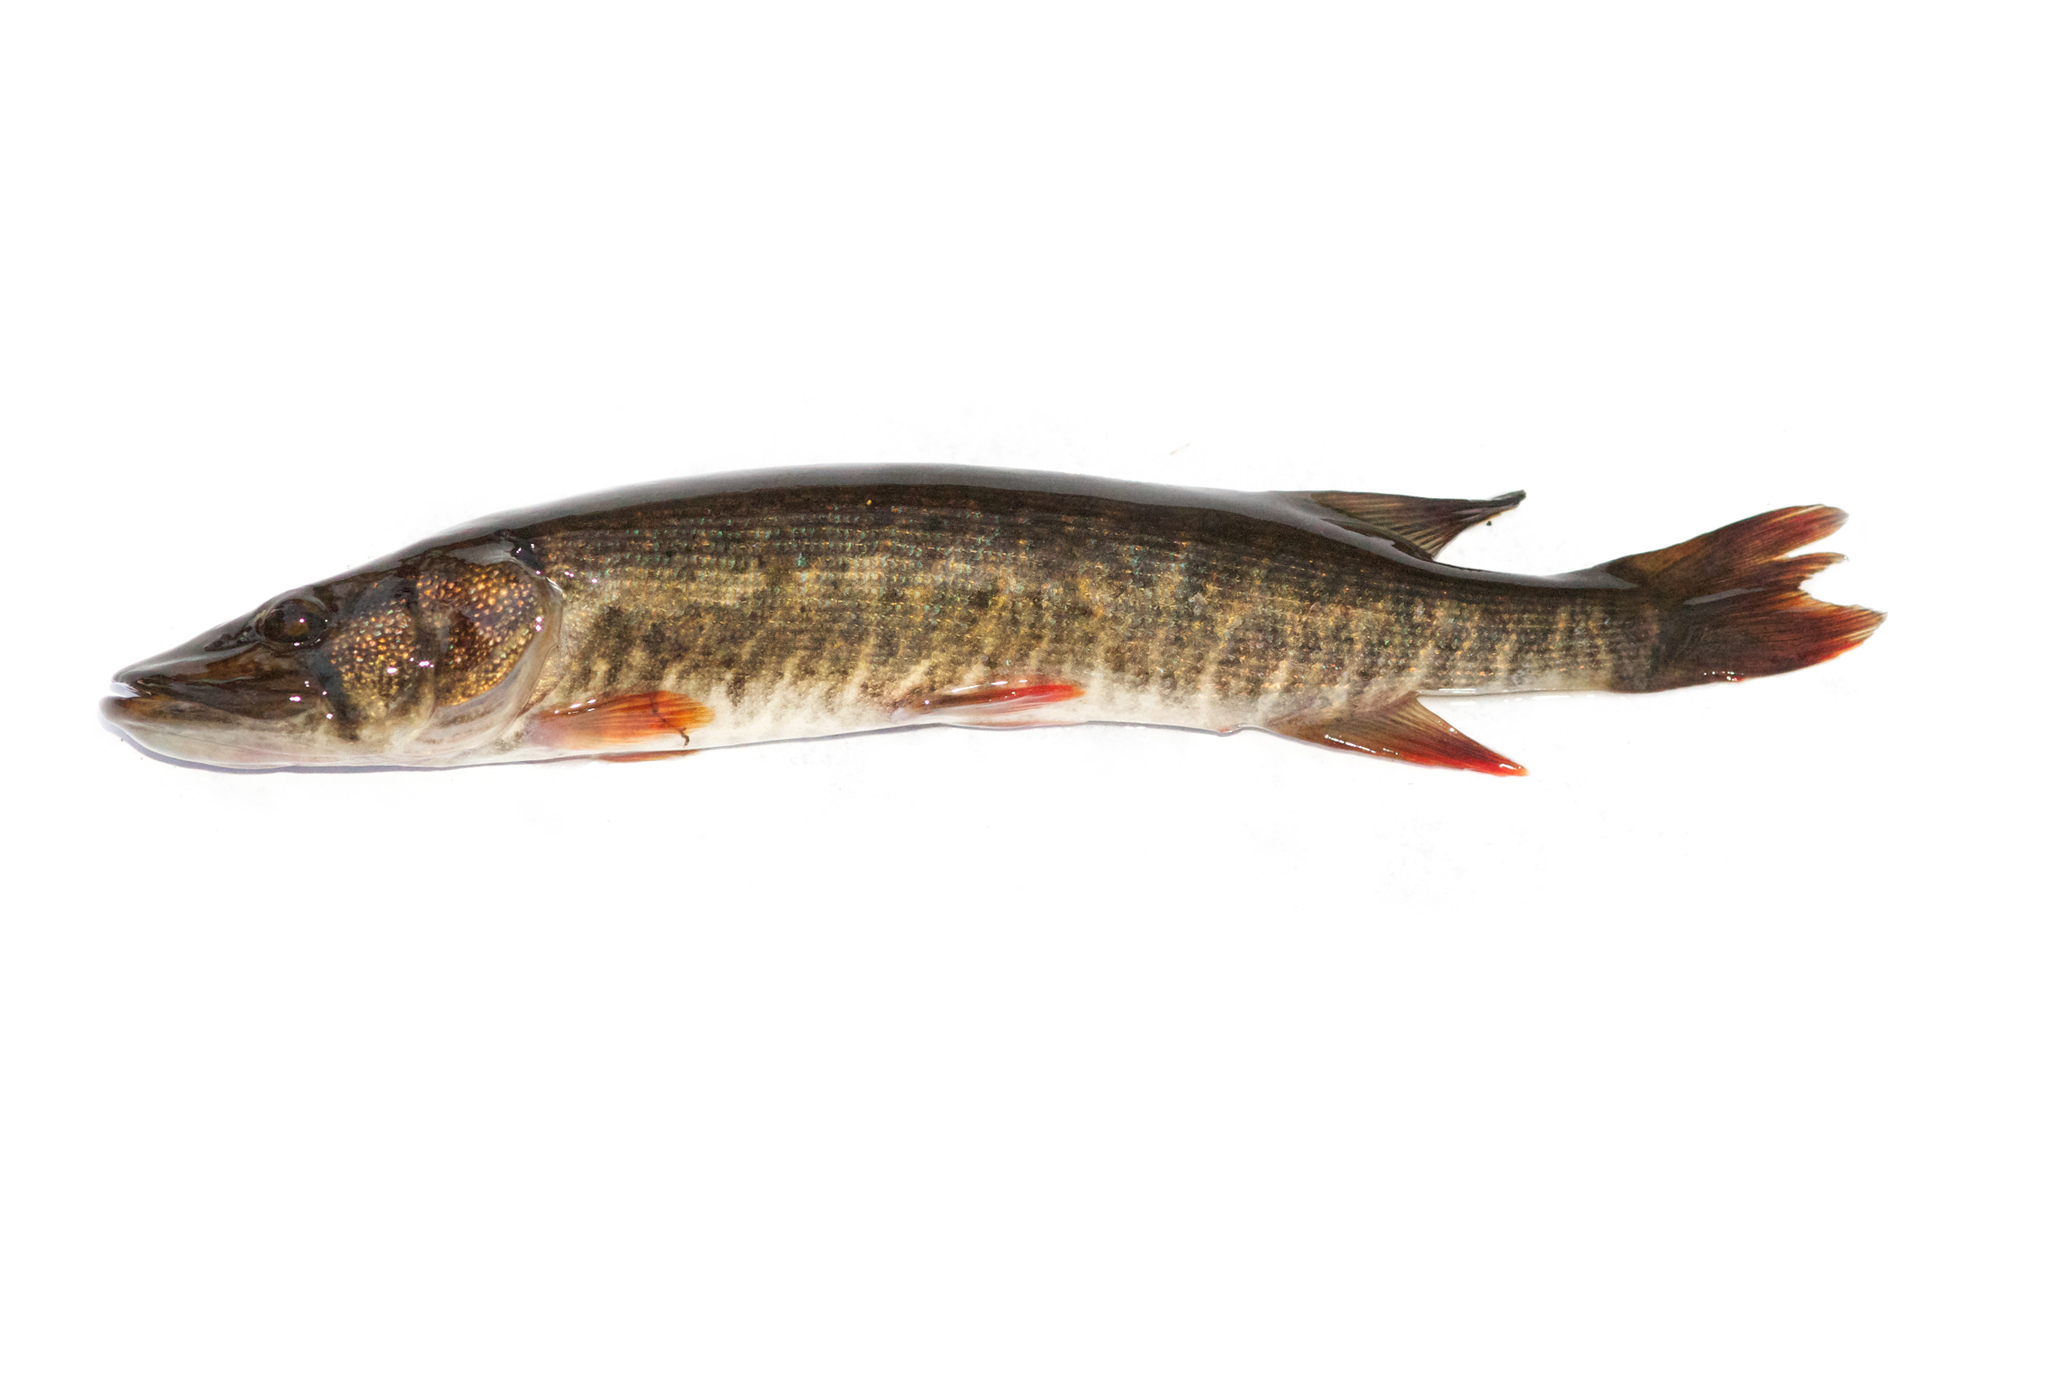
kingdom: Animalia
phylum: Chordata
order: Esociformes
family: Esocidae
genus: Esox
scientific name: Esox americanus
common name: Redfin pickerel
